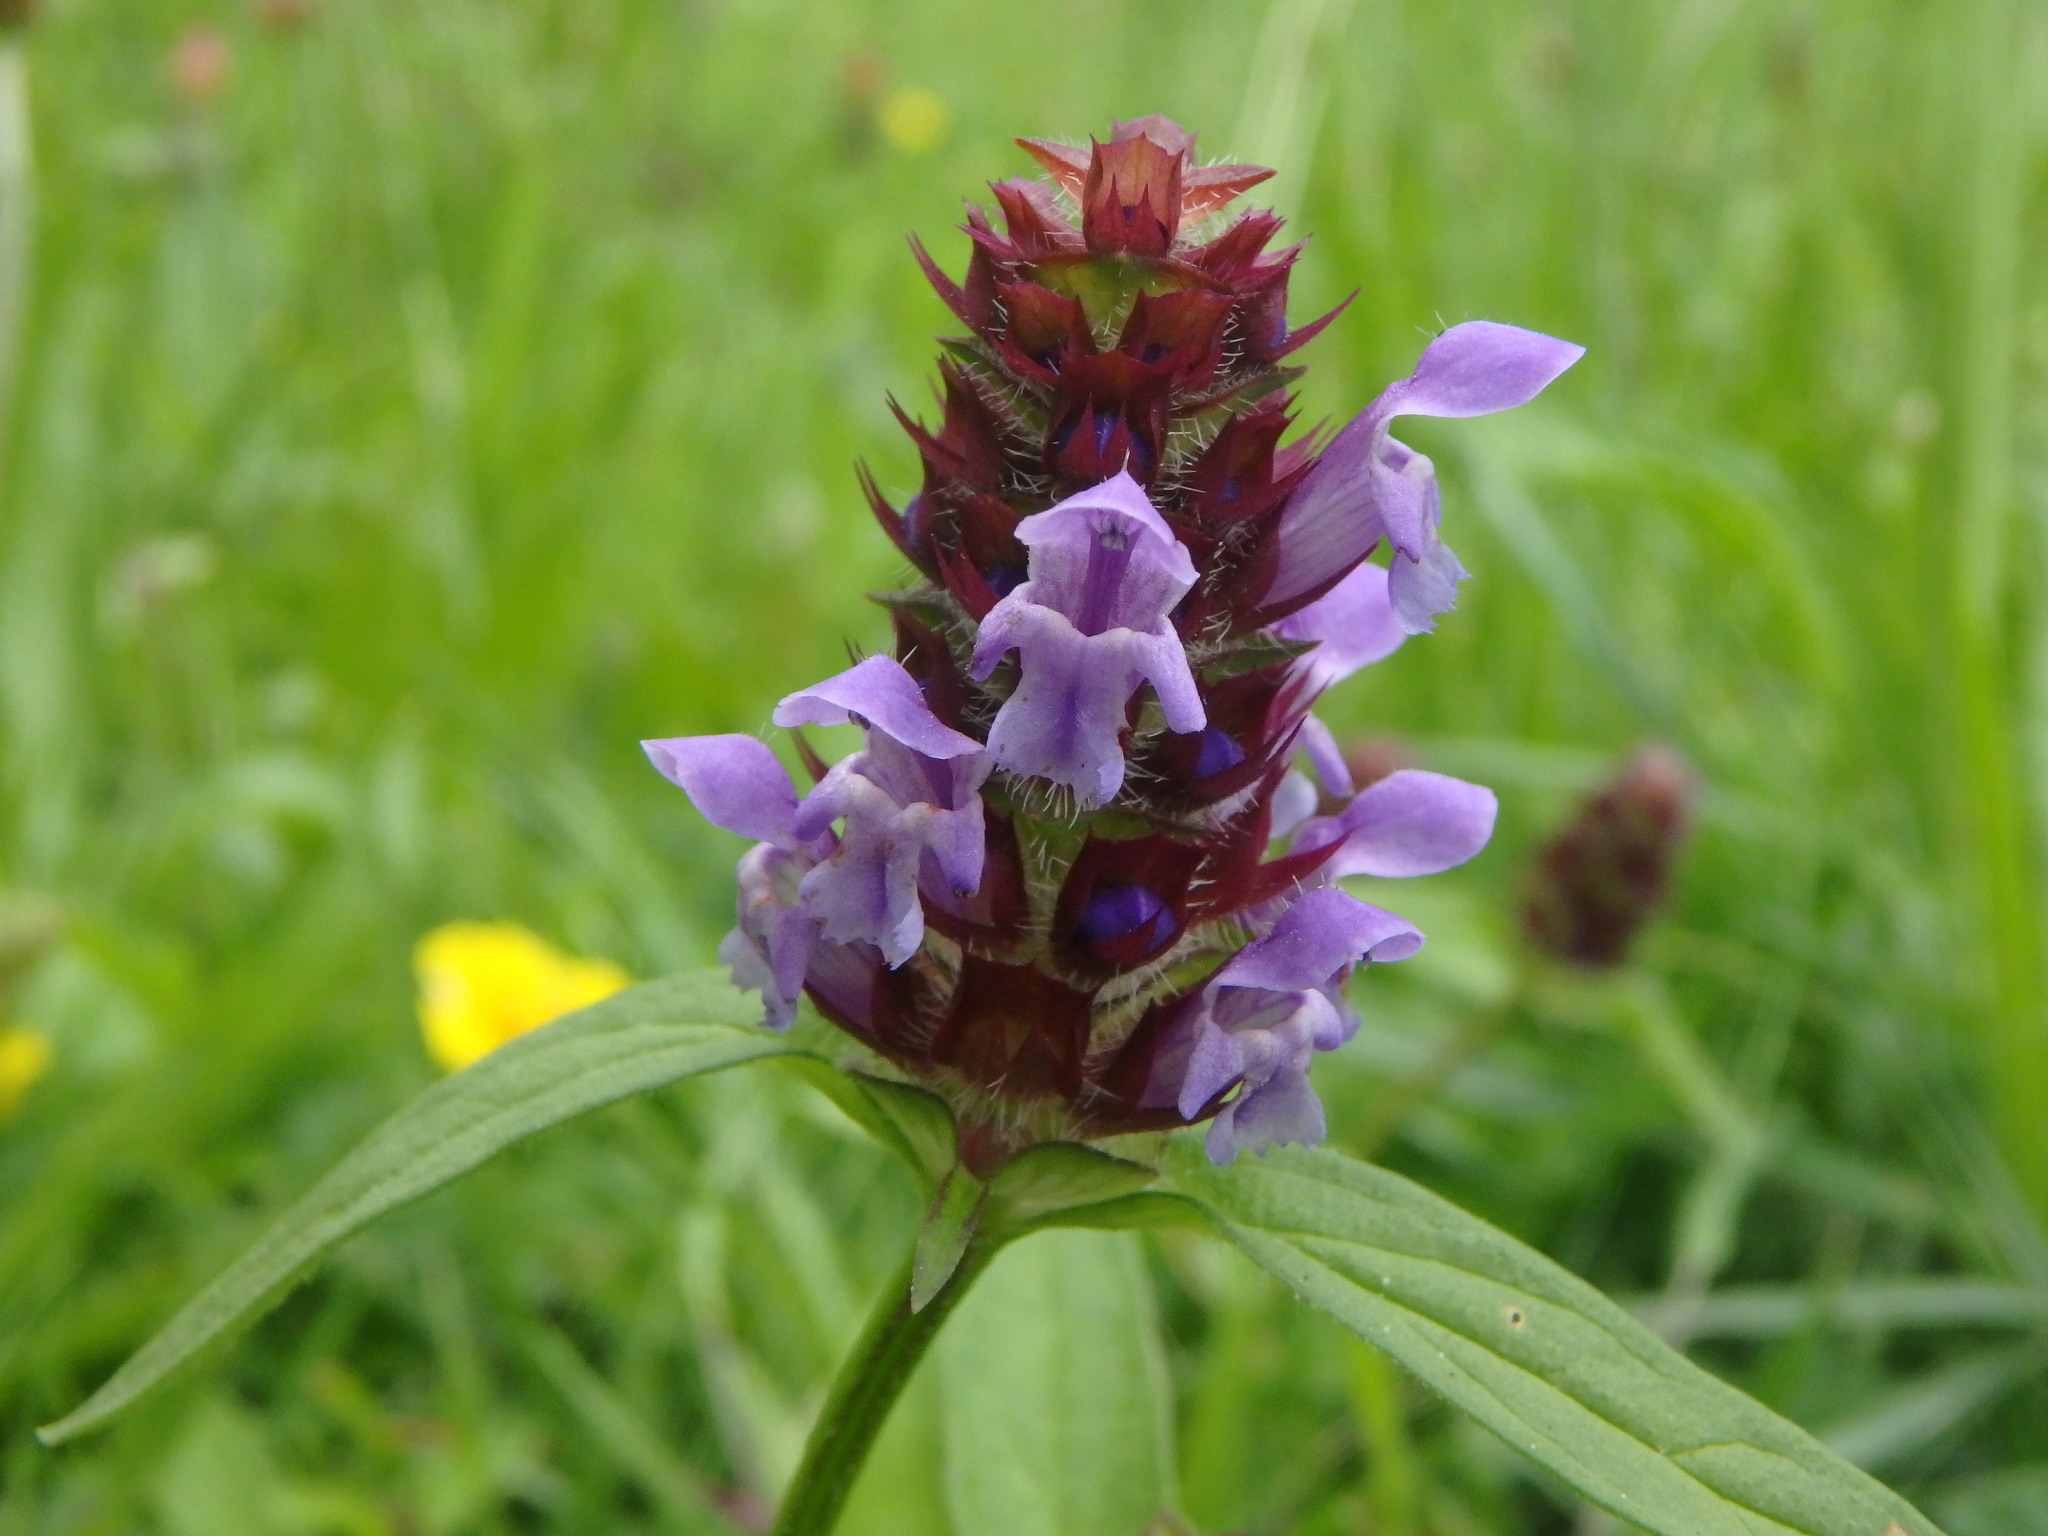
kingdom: Plantae
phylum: Tracheophyta
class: Magnoliopsida
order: Lamiales
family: Lamiaceae
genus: Prunella
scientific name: Prunella vulgaris
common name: Heal-all
